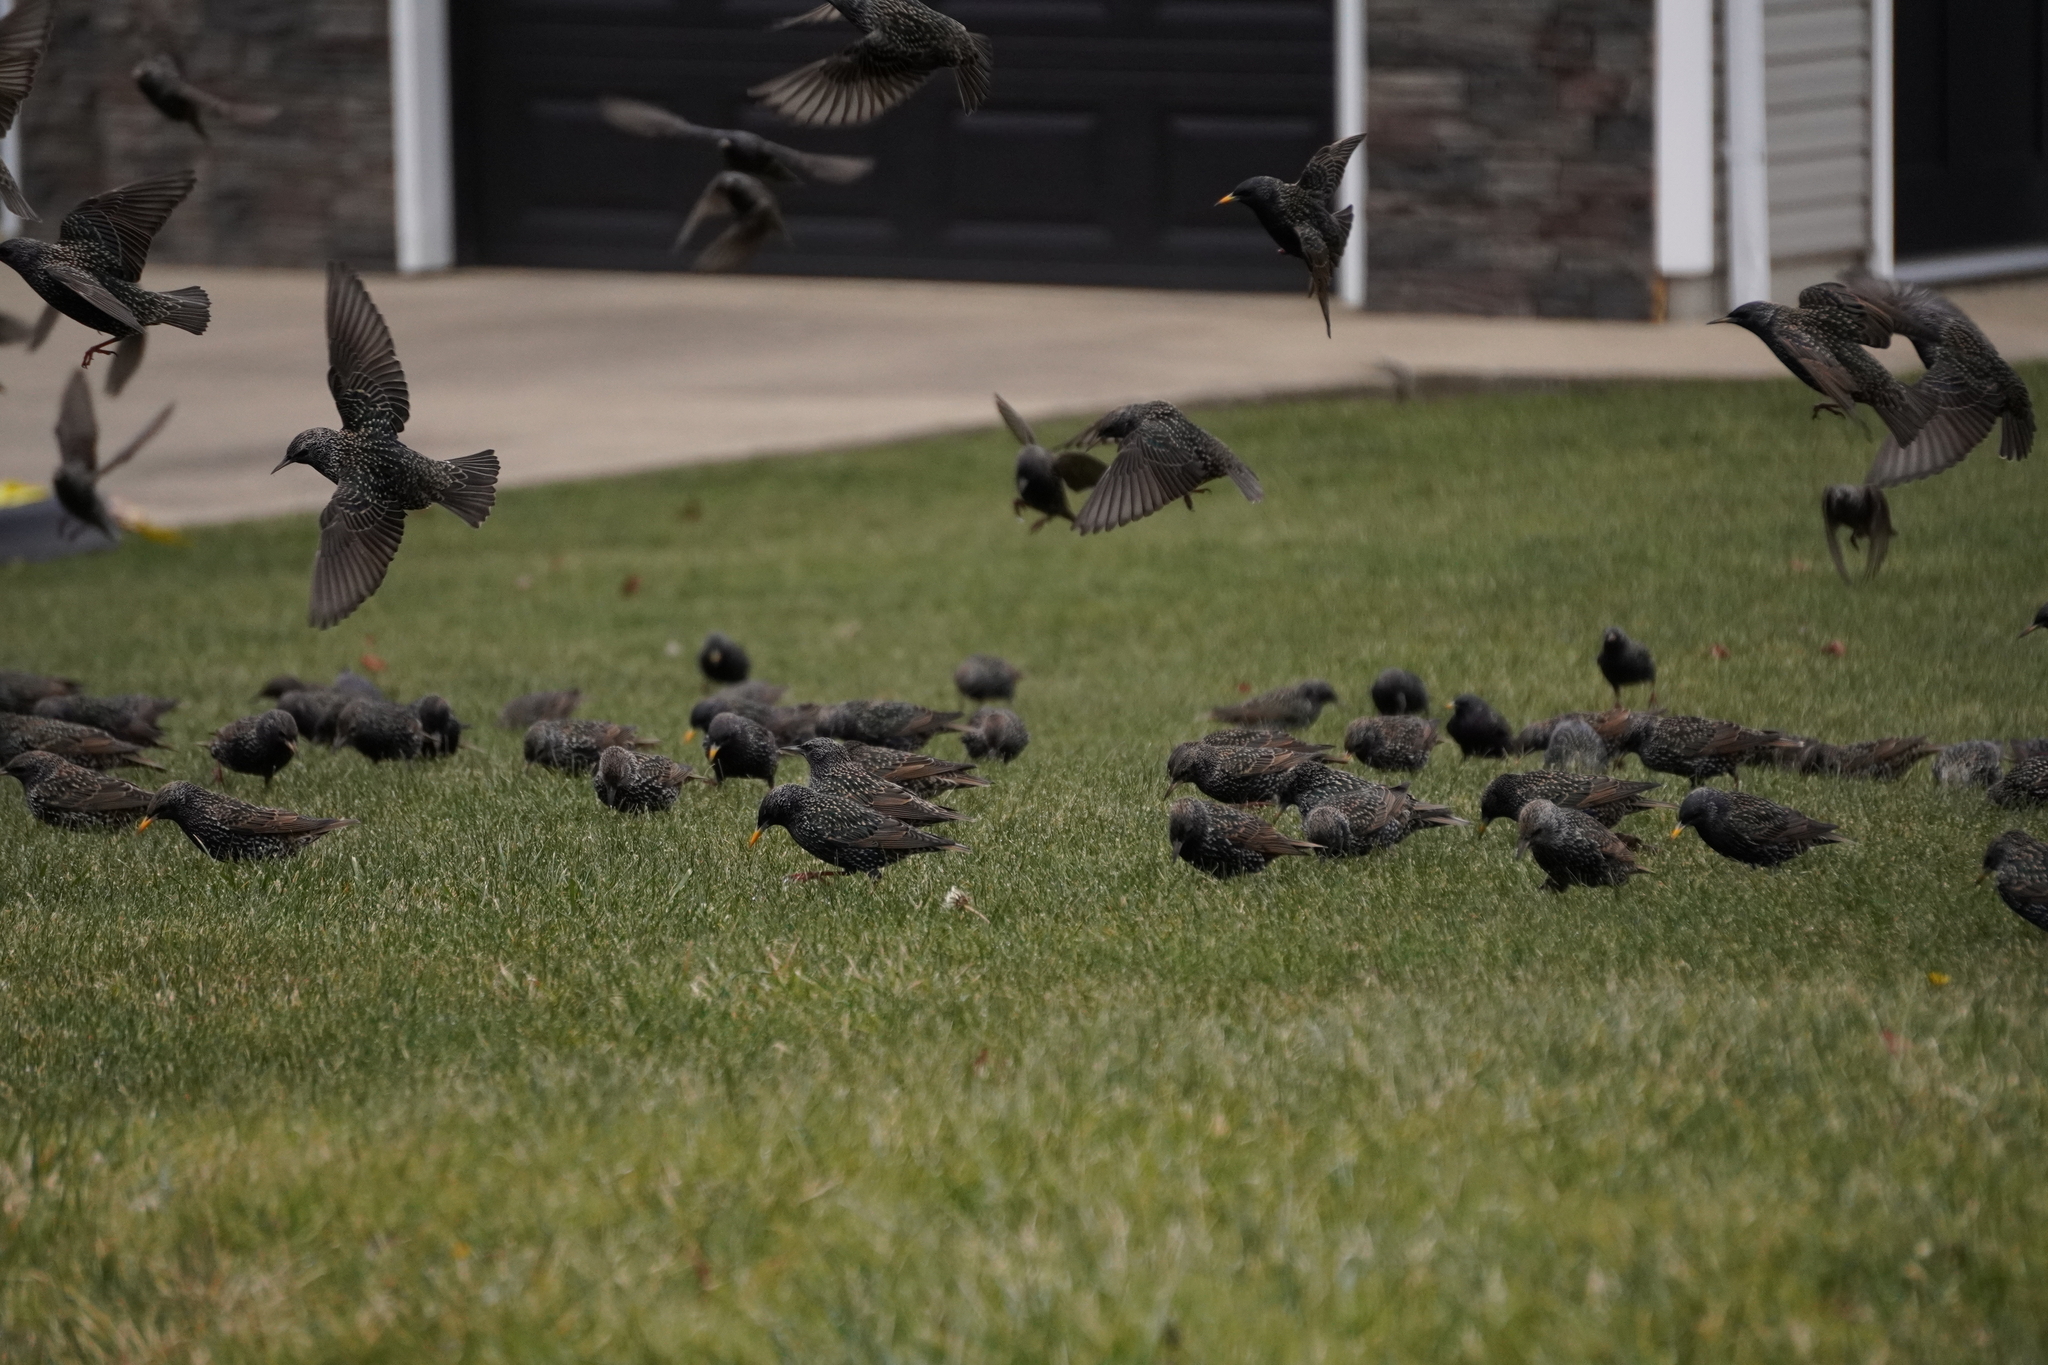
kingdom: Animalia
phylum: Chordata
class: Aves
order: Passeriformes
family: Sturnidae
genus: Sturnus
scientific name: Sturnus vulgaris
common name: Common starling
